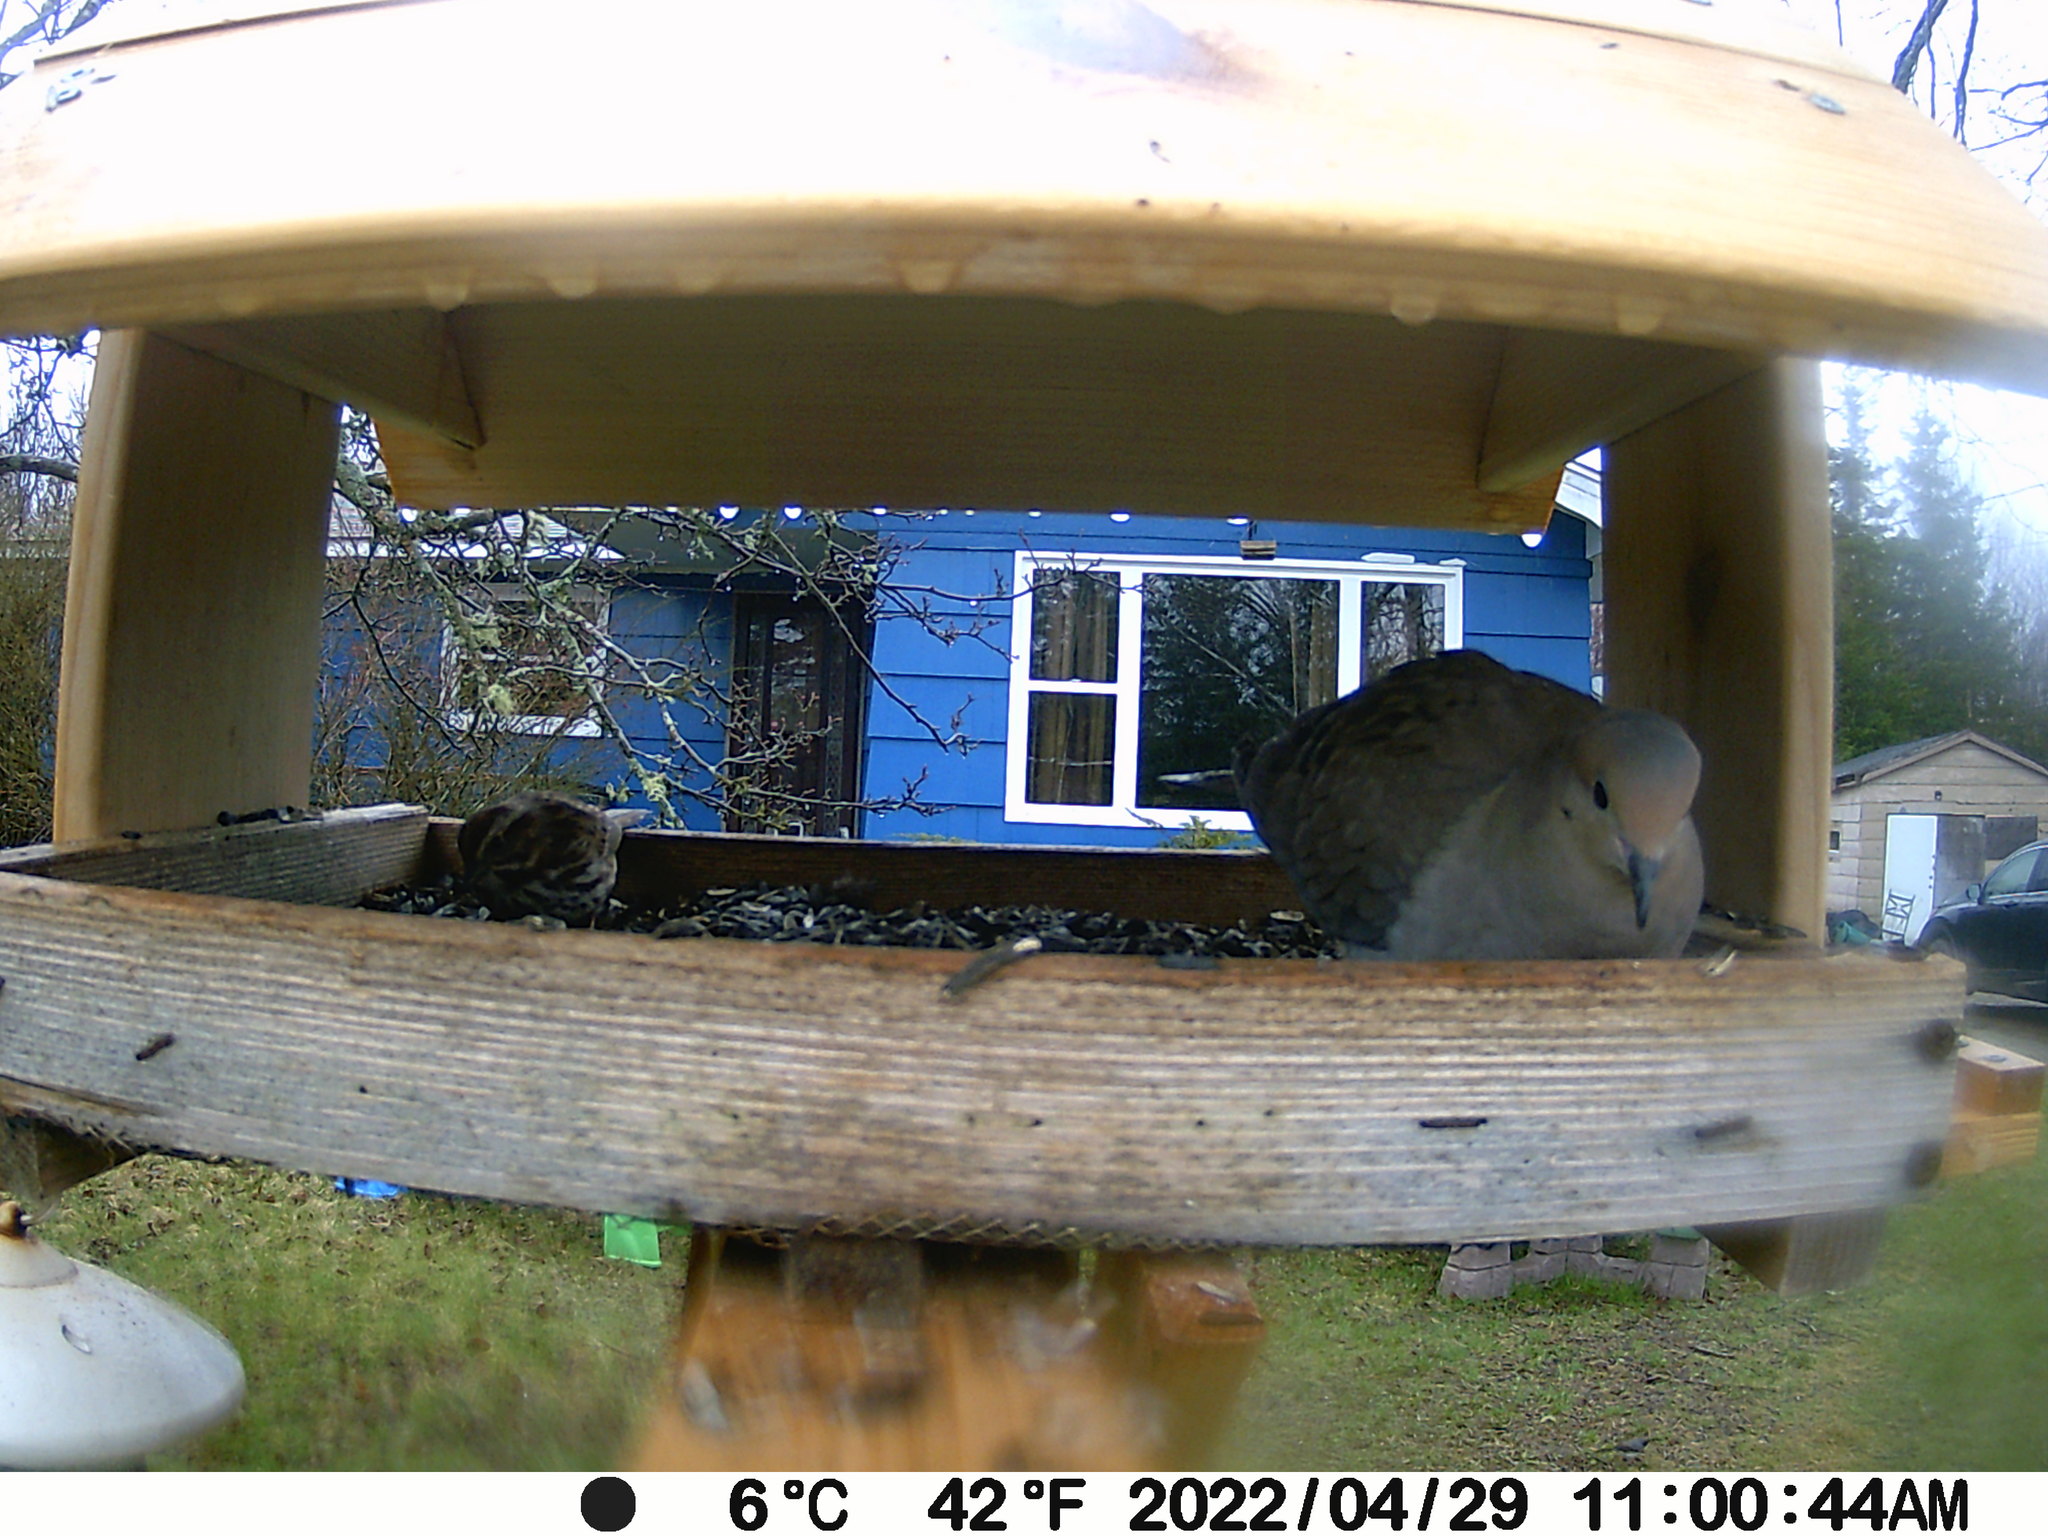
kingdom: Animalia
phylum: Chordata
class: Aves
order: Columbiformes
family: Columbidae
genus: Zenaida
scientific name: Zenaida macroura
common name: Mourning dove
